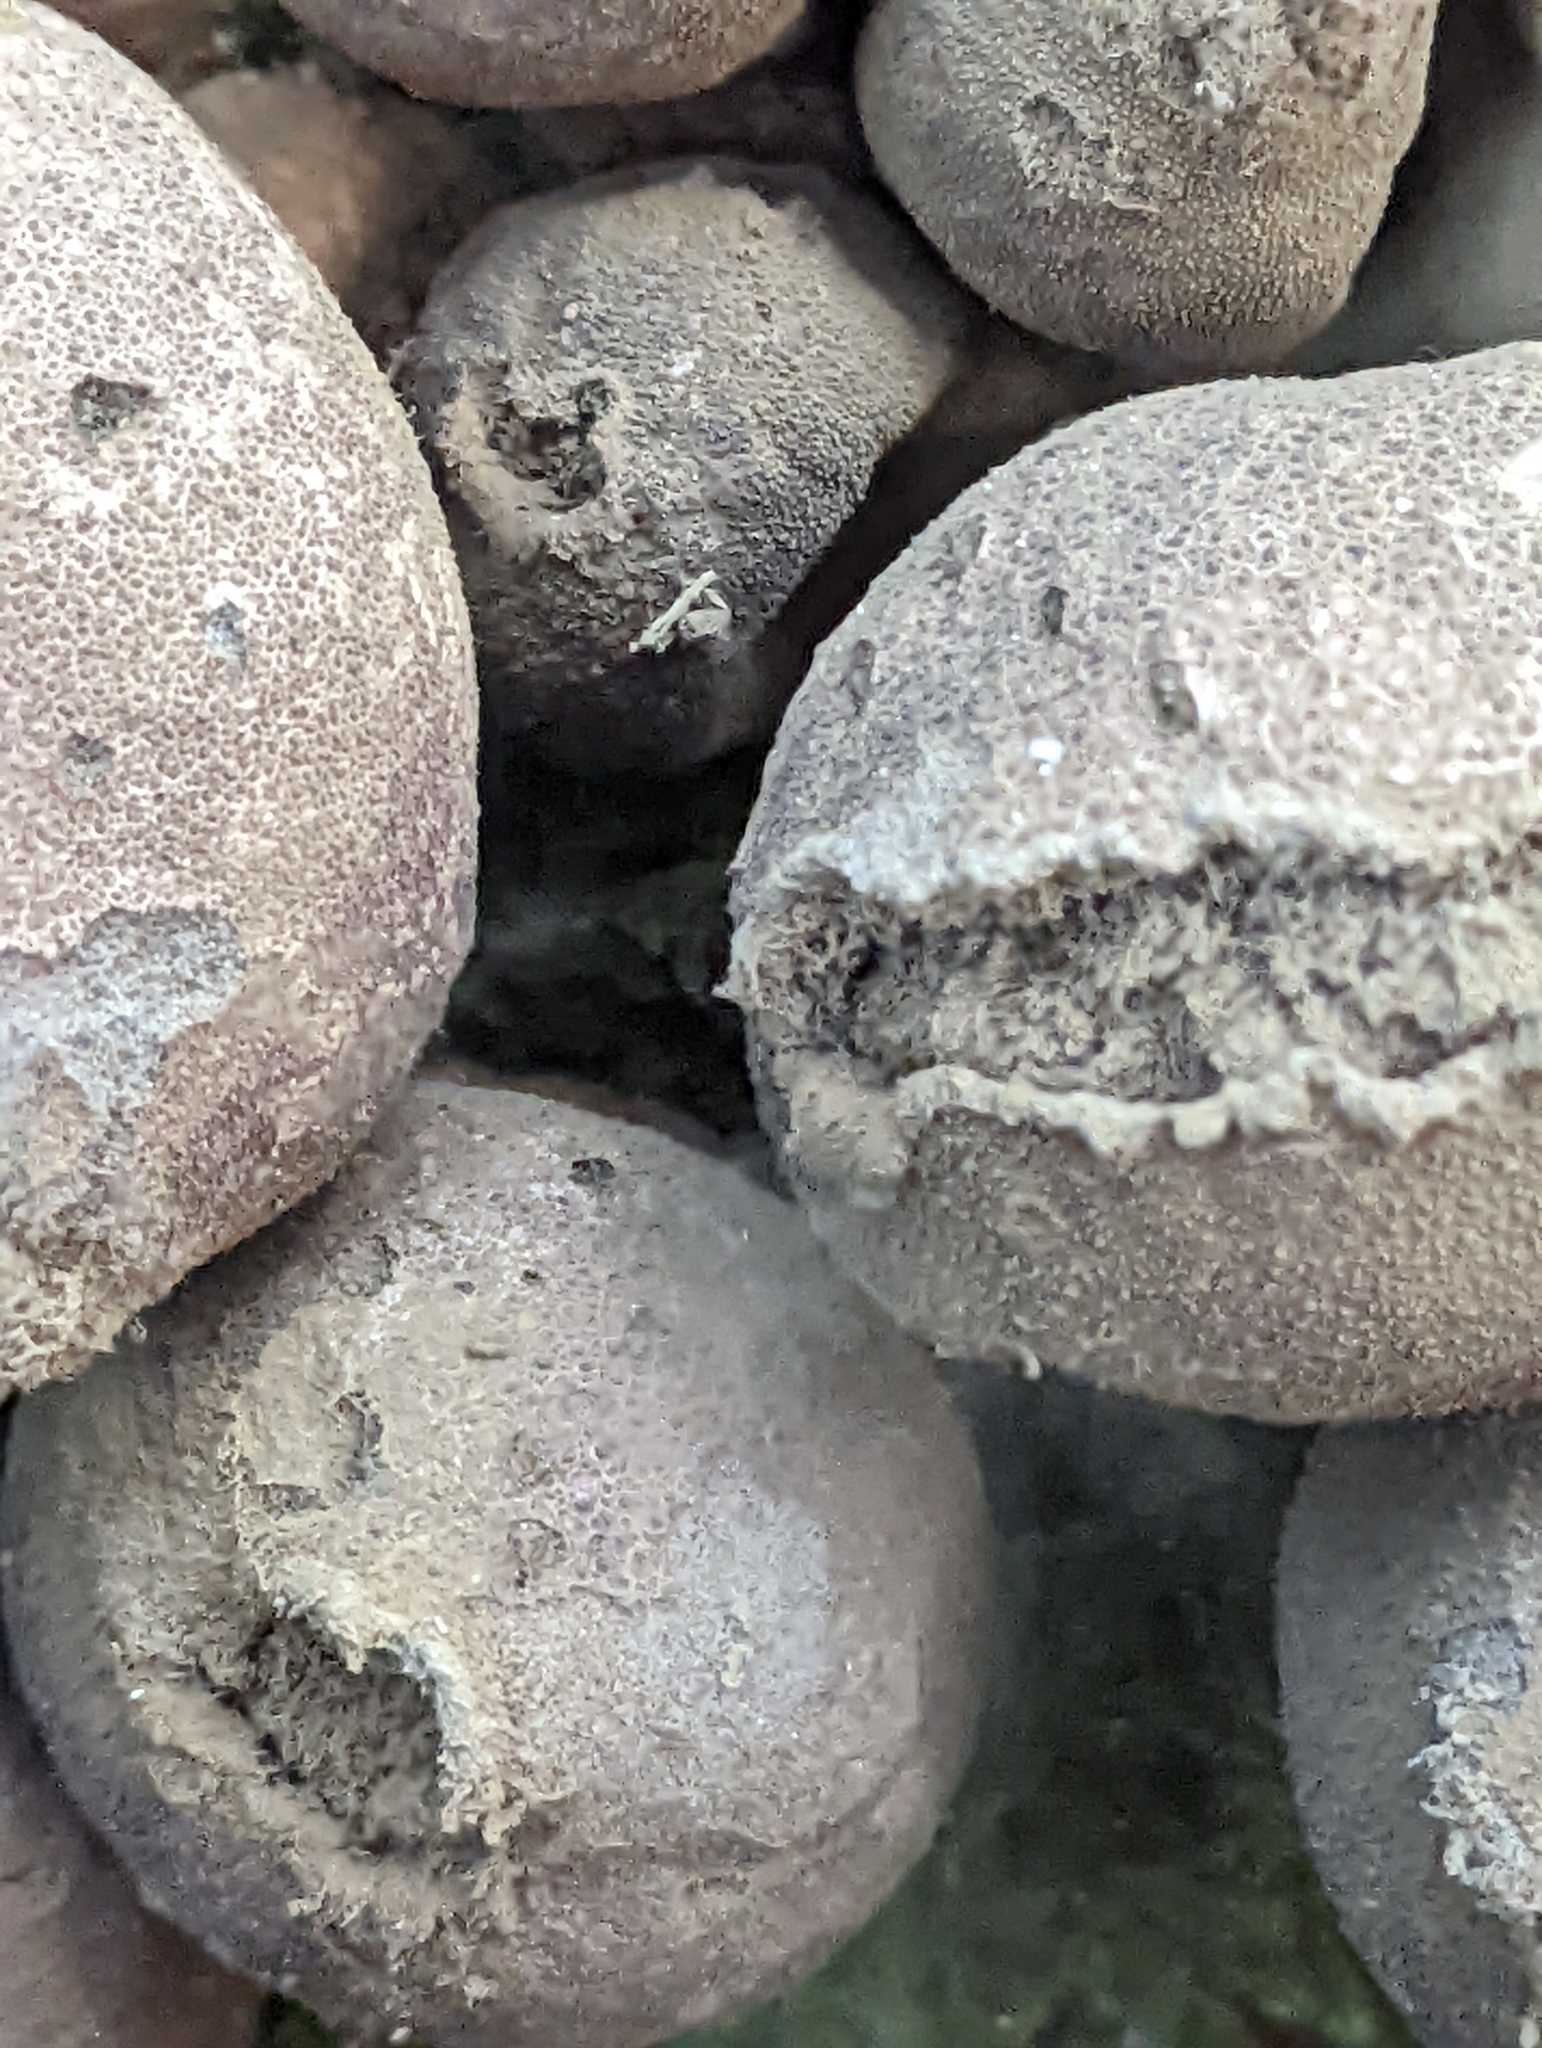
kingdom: Fungi
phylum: Basidiomycota
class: Agaricomycetes
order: Agaricales
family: Lycoperdaceae
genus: Apioperdon
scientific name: Apioperdon pyriforme
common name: Pear-shaped puffball
